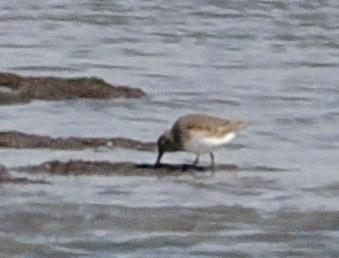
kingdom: Animalia
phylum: Chordata
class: Aves
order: Charadriiformes
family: Scolopacidae
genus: Calidris
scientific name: Calidris alpina
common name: Dunlin
